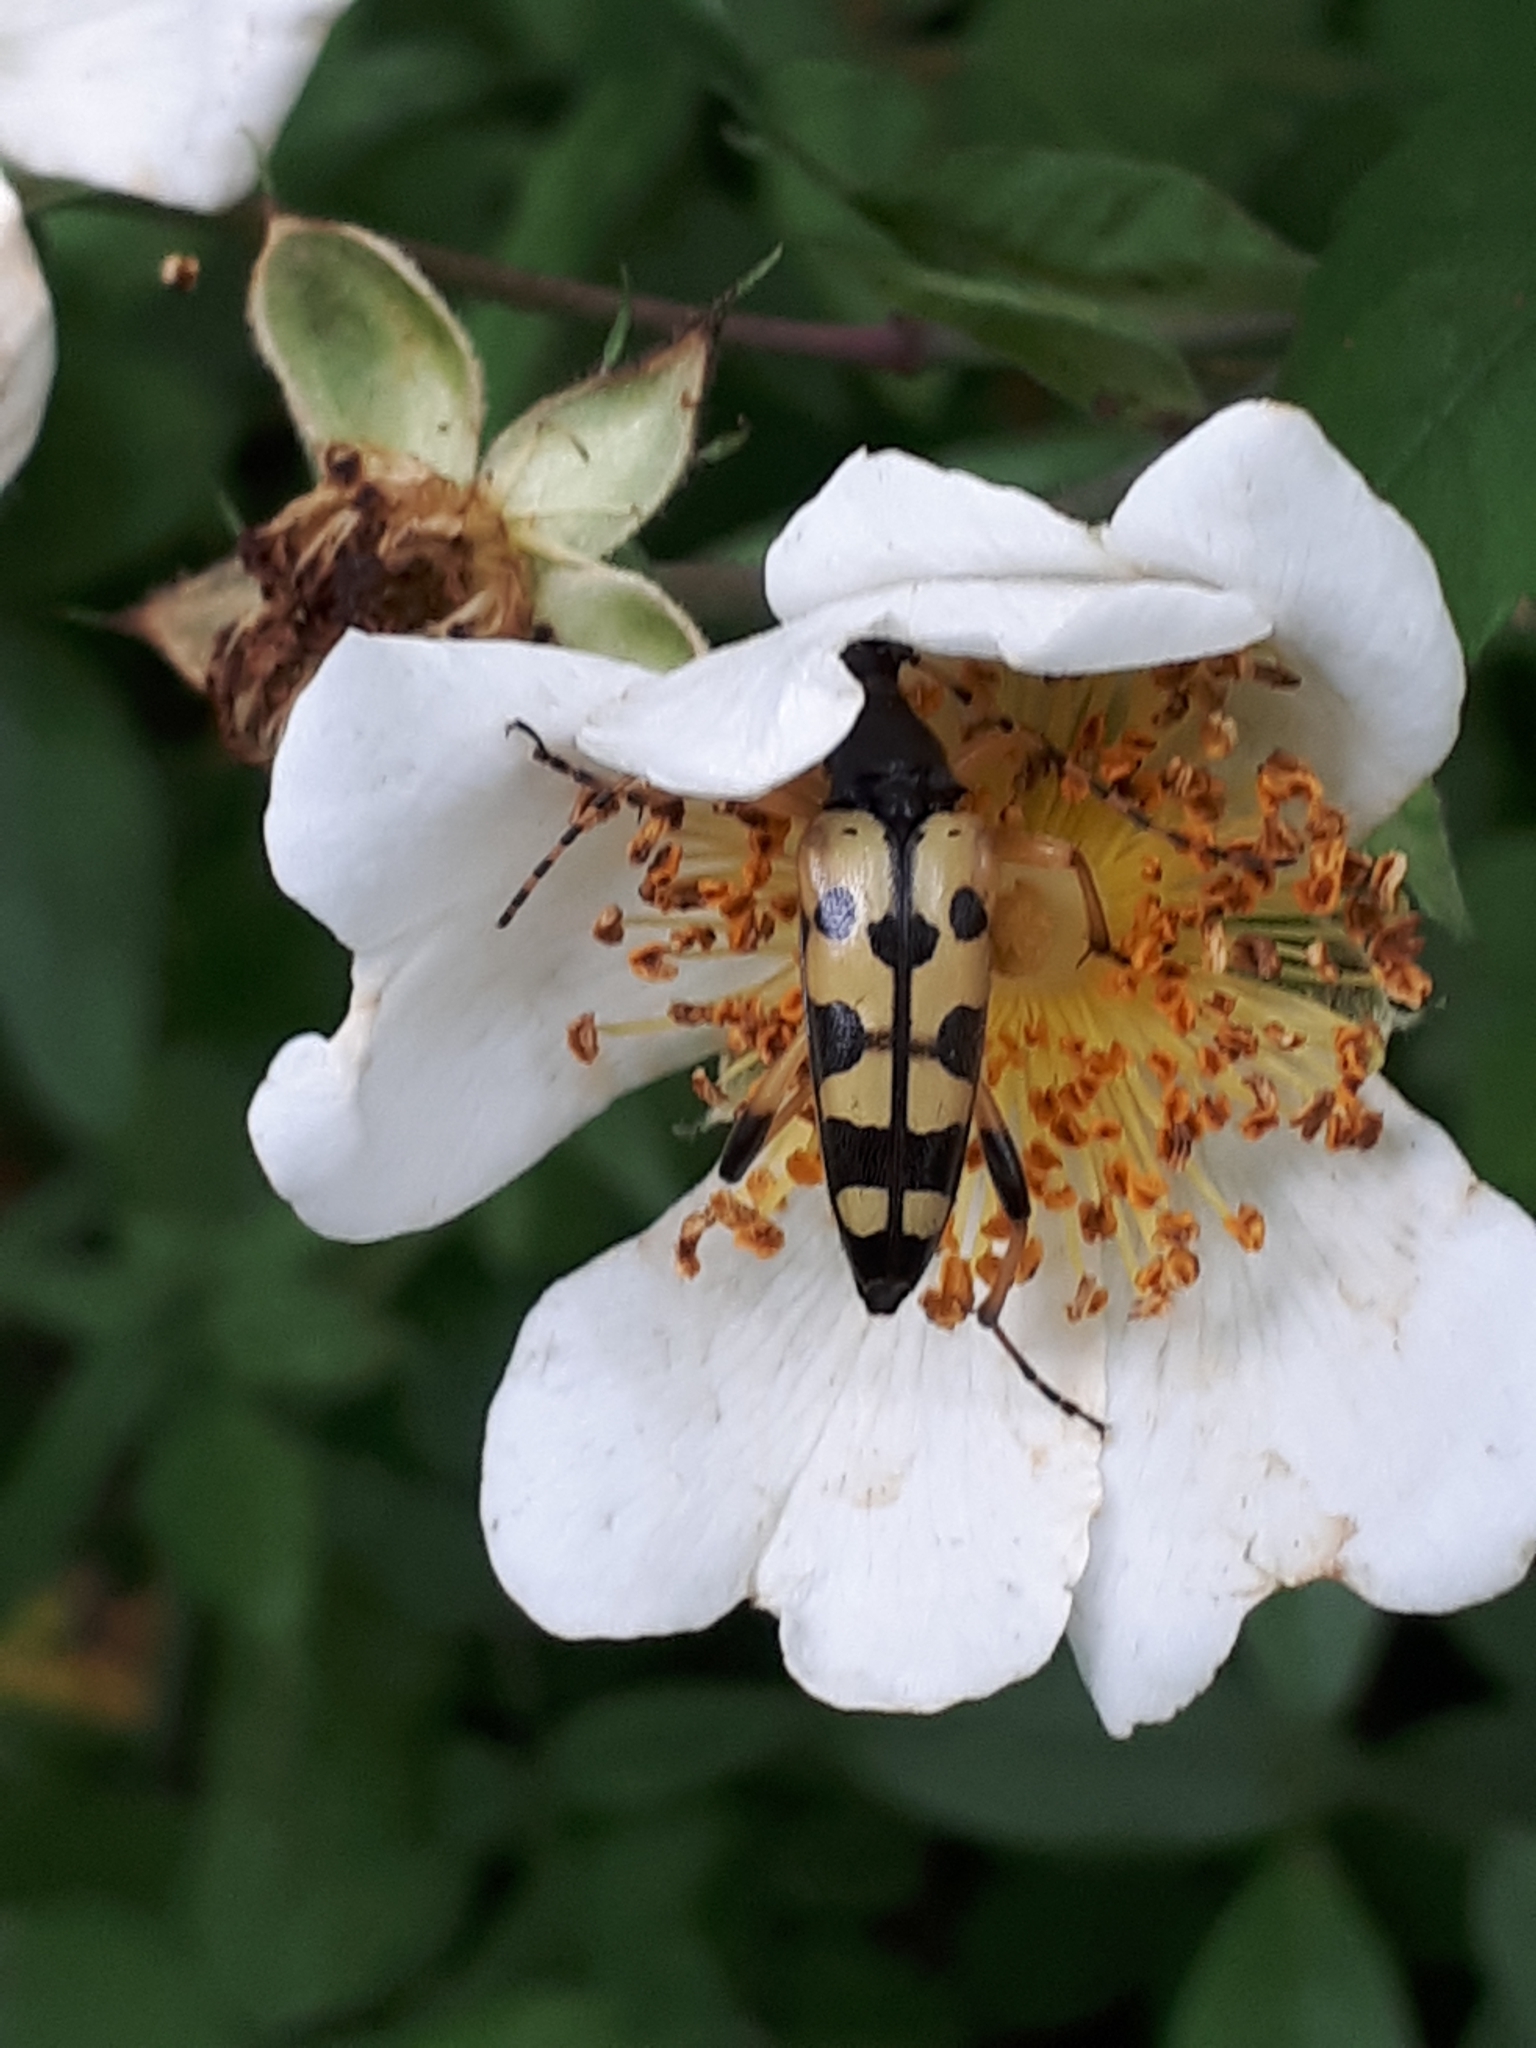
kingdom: Animalia
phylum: Arthropoda
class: Insecta
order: Coleoptera
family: Cerambycidae
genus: Rutpela
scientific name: Rutpela maculata
